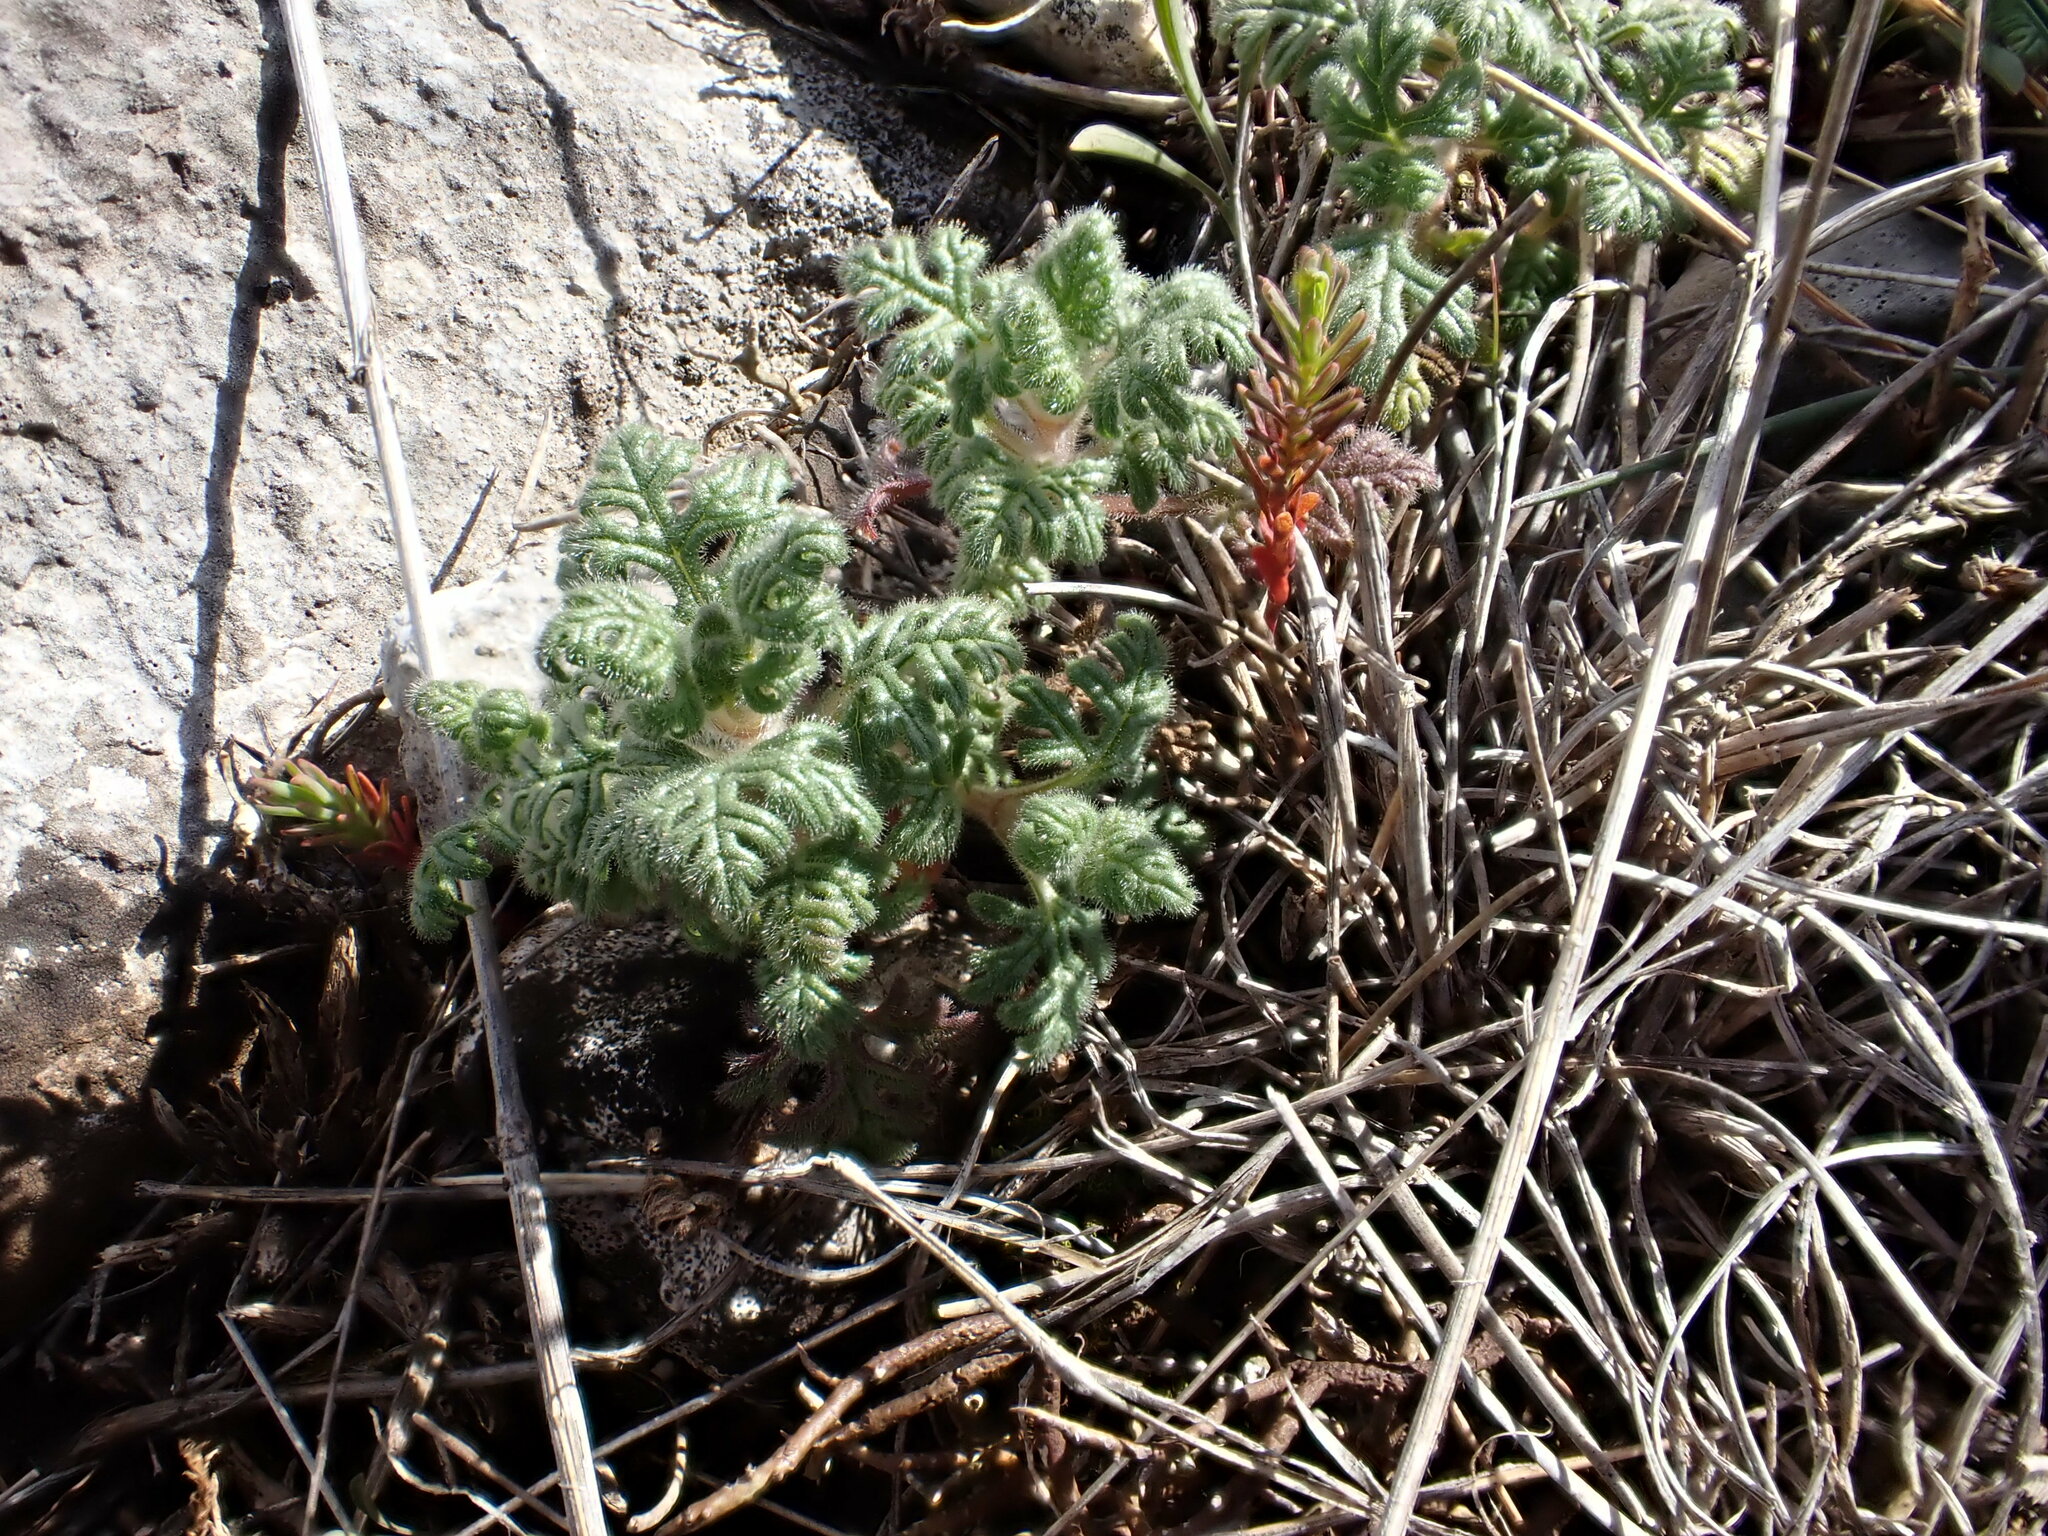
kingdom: Plantae
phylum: Tracheophyta
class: Magnoliopsida
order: Lamiales
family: Lamiaceae
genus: Teucrium
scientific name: Teucrium botrys
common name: Cut-leaved germander
